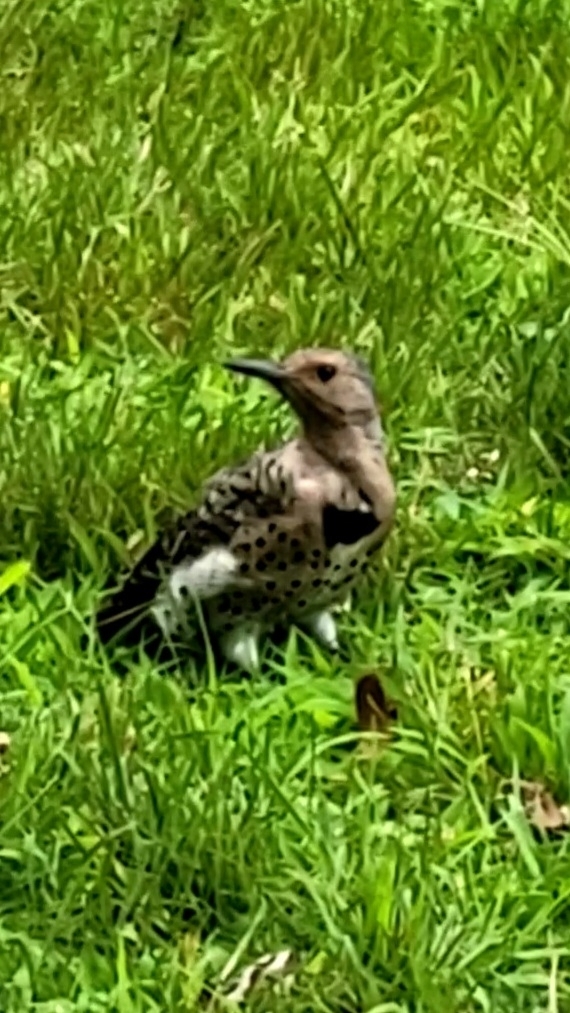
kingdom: Animalia
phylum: Chordata
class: Aves
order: Piciformes
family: Picidae
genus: Colaptes
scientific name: Colaptes auratus
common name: Northern flicker
